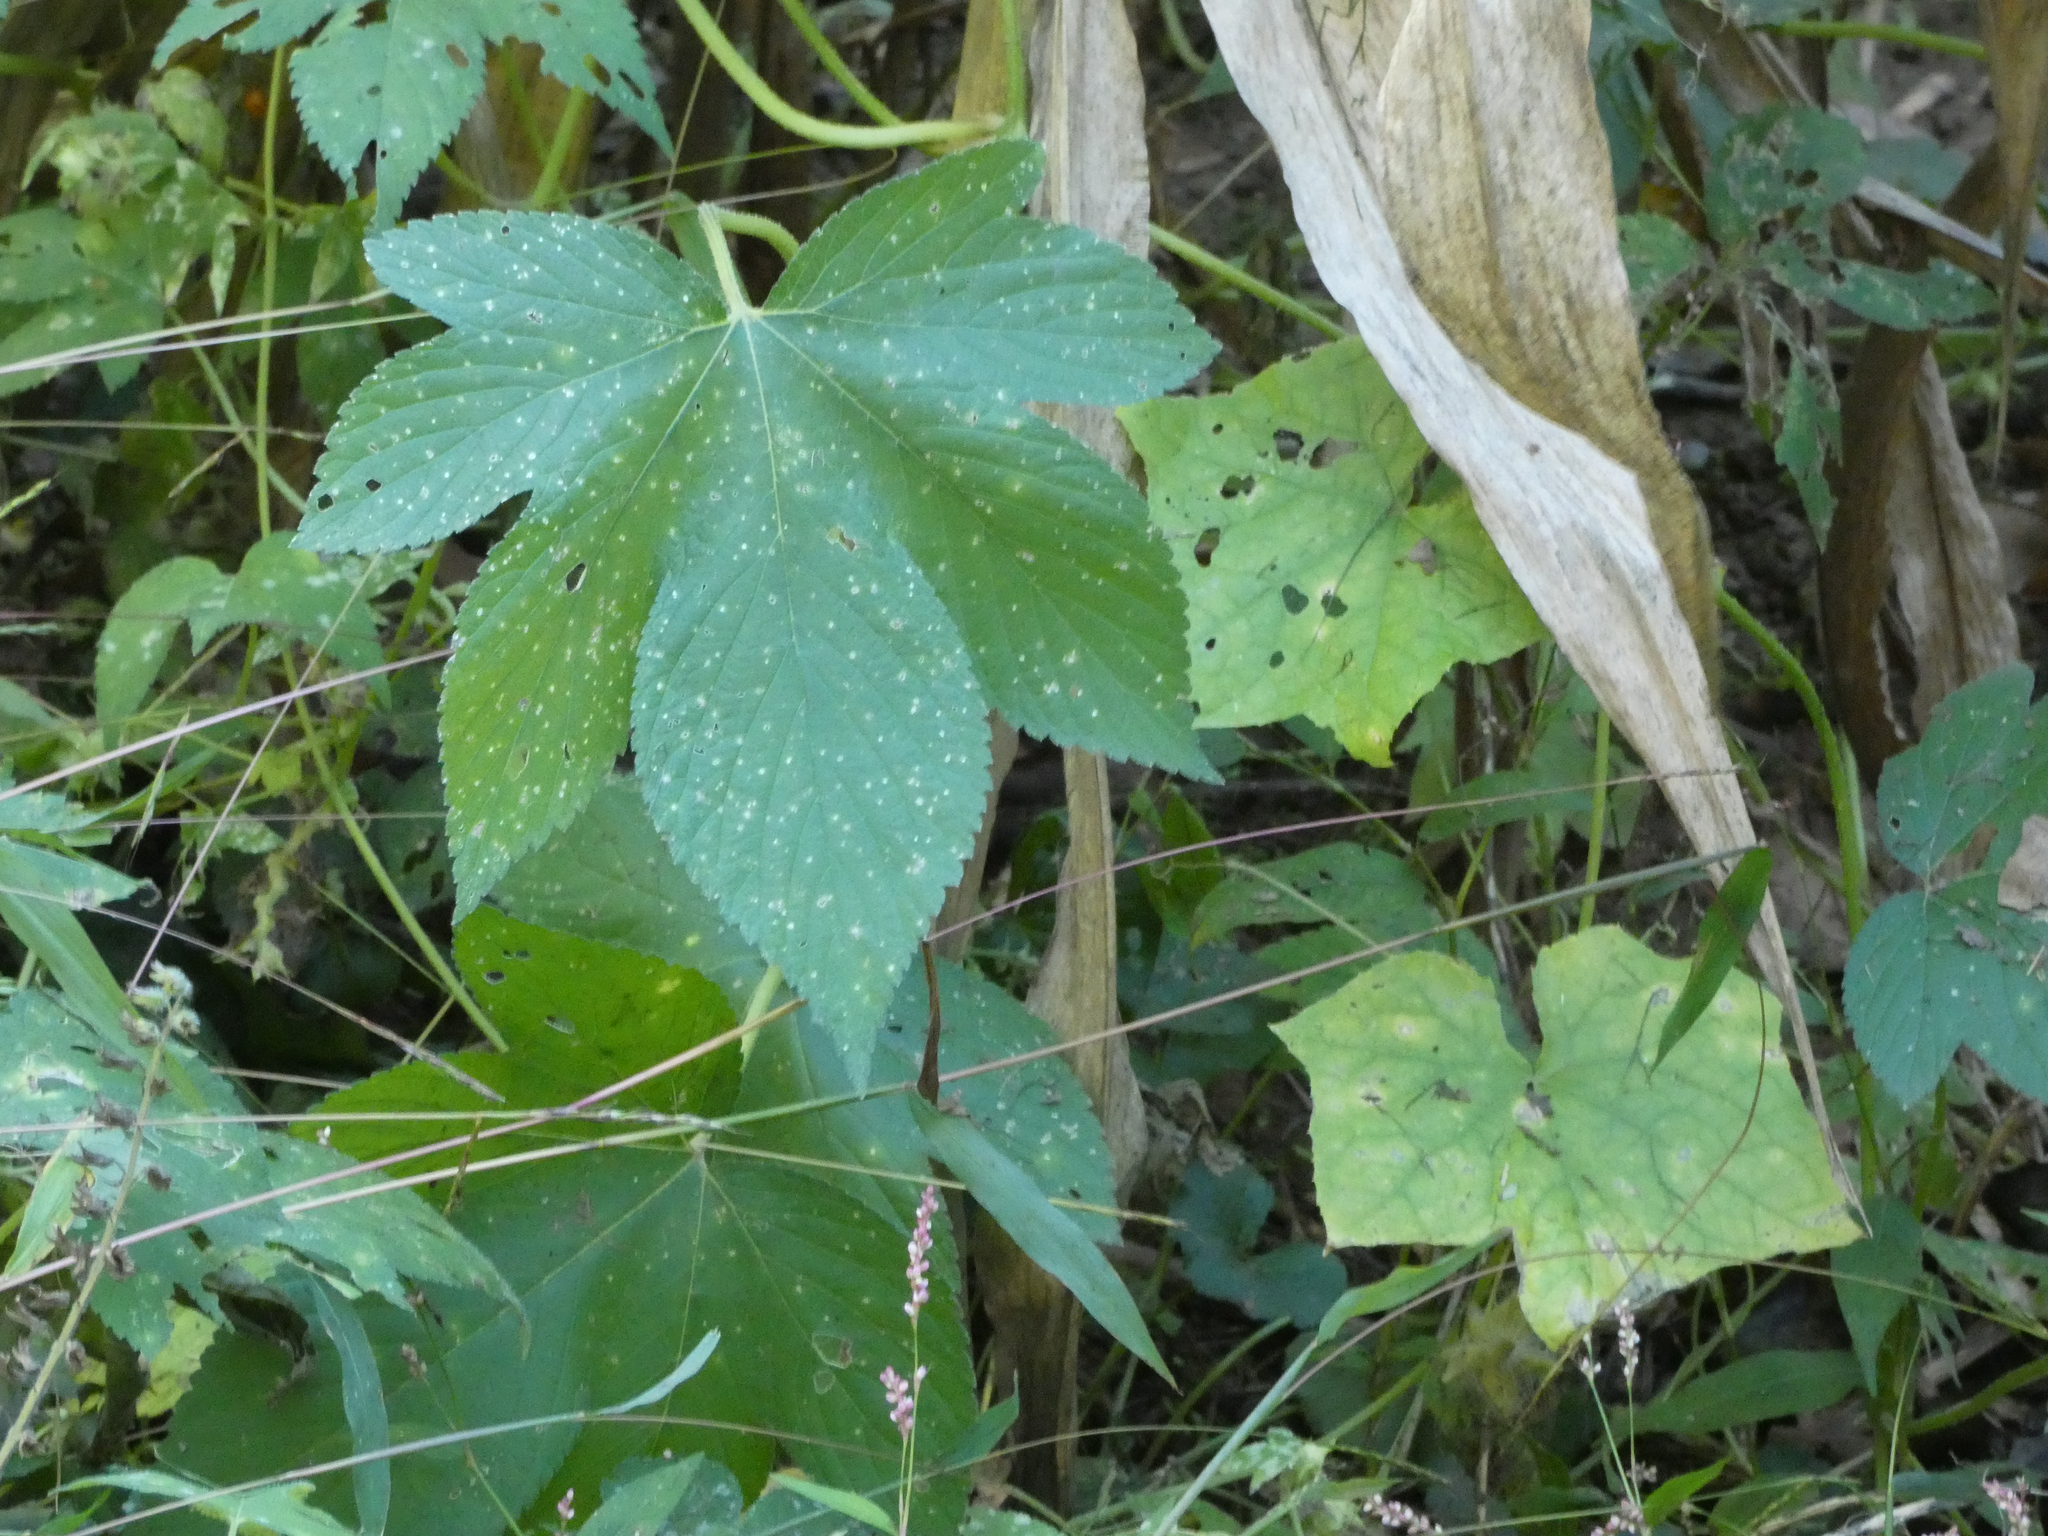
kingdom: Plantae
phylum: Tracheophyta
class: Magnoliopsida
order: Rosales
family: Cannabaceae
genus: Humulus
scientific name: Humulus scandens
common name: Japanese hop
